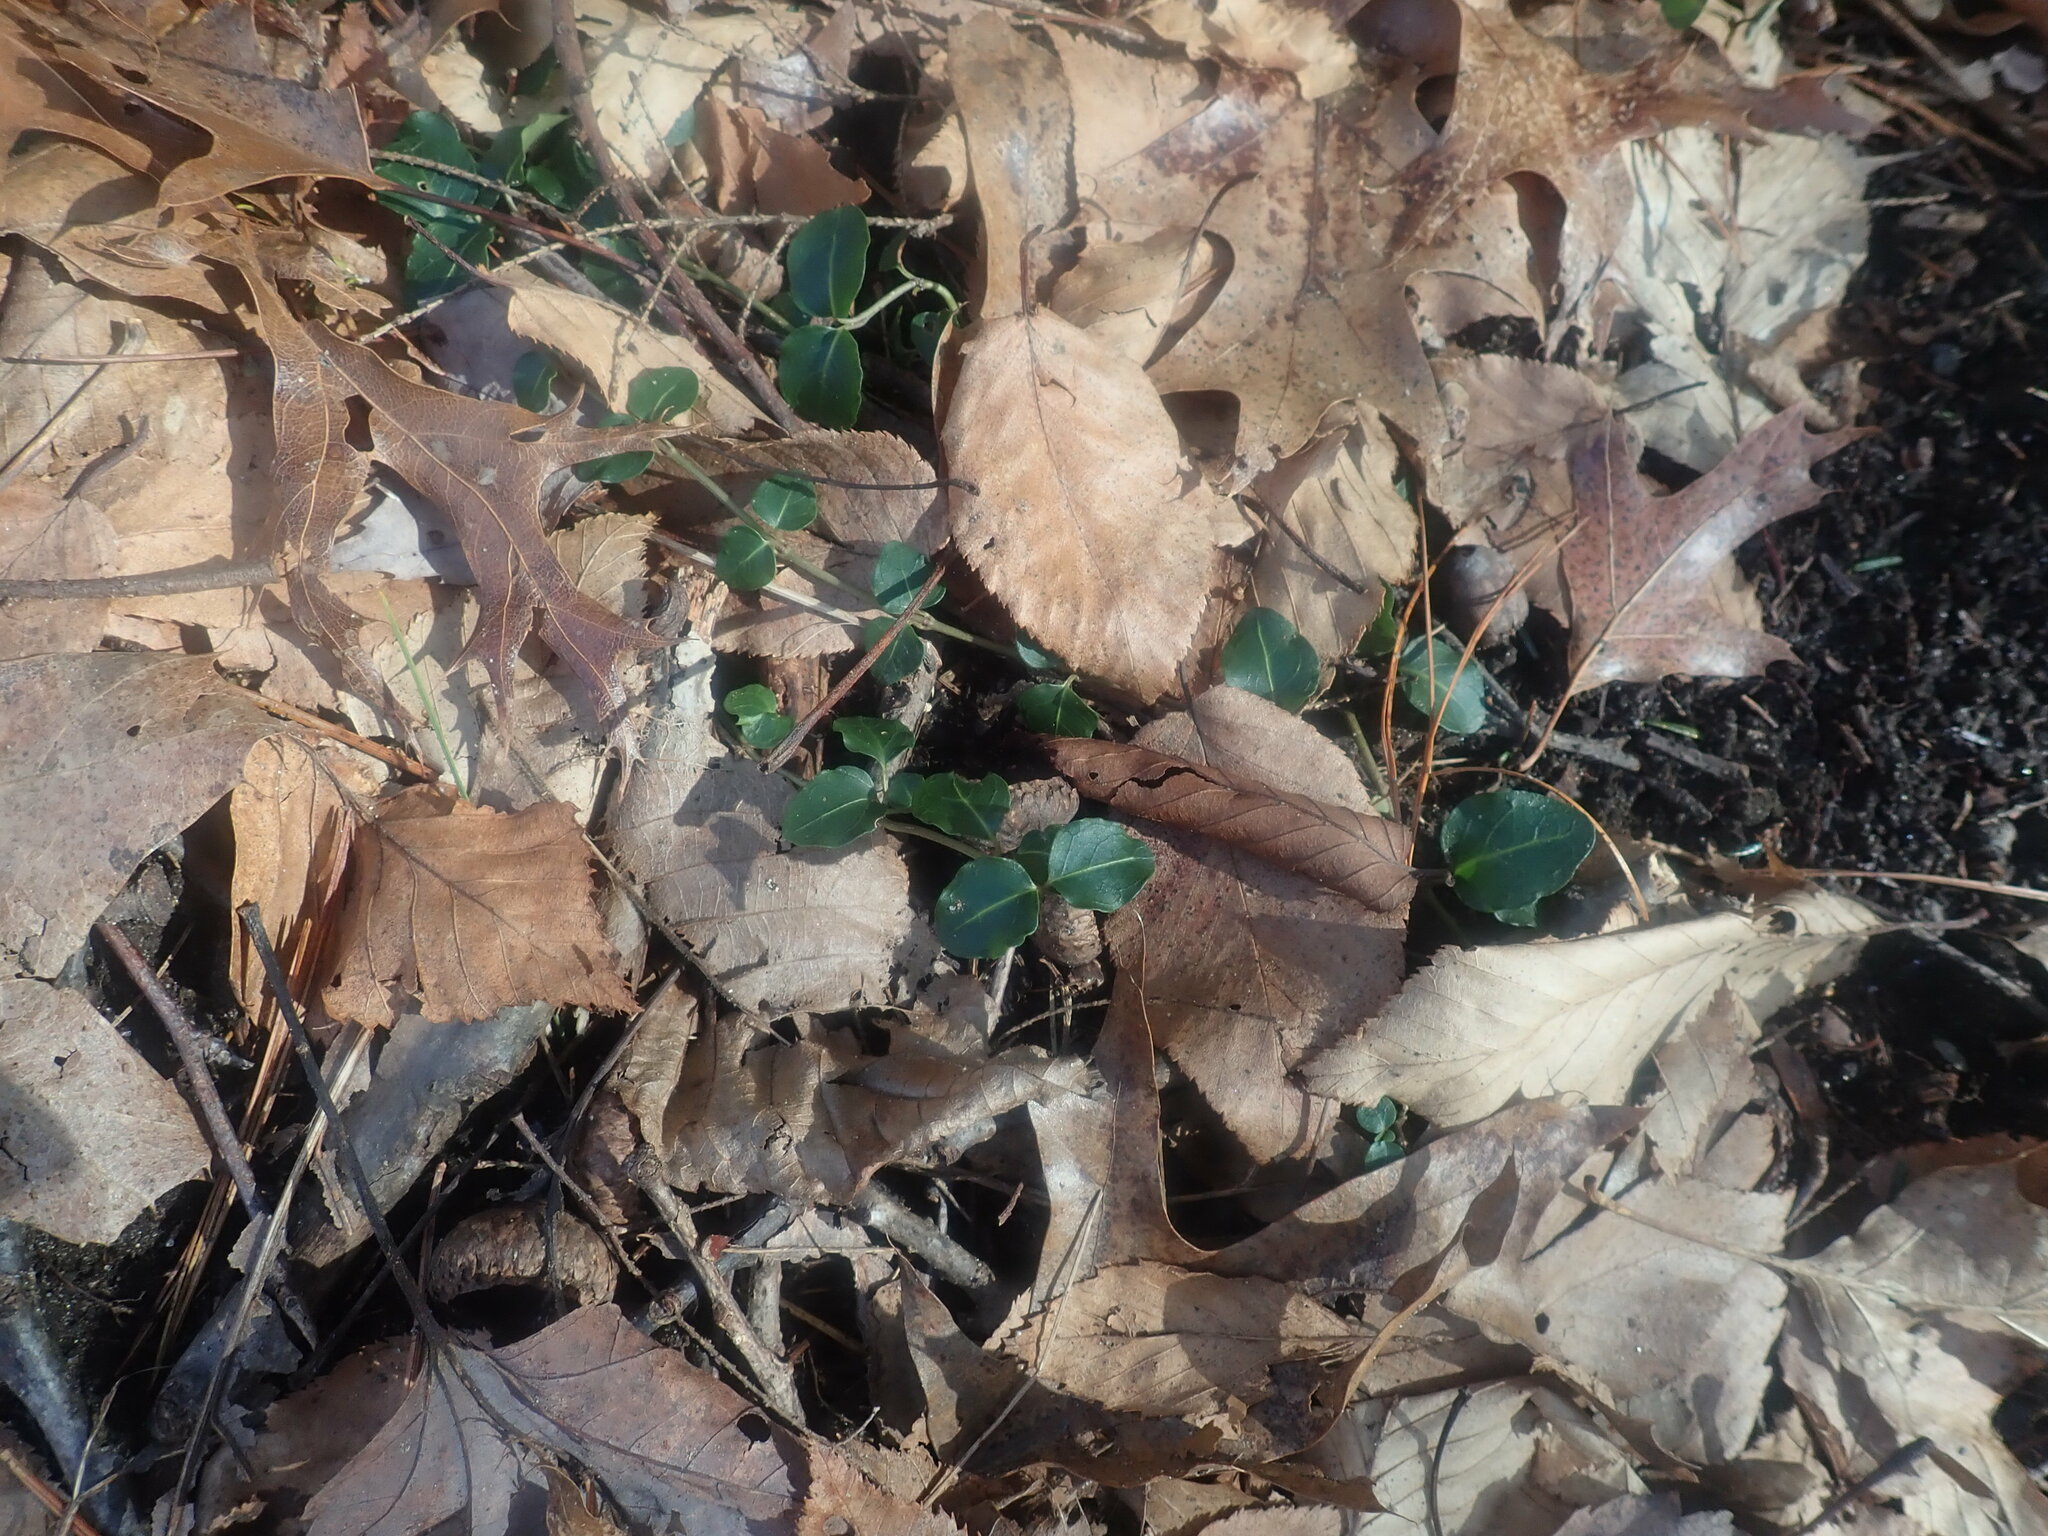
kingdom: Plantae
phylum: Tracheophyta
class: Magnoliopsida
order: Gentianales
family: Rubiaceae
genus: Mitchella
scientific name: Mitchella repens
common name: Partridge-berry
